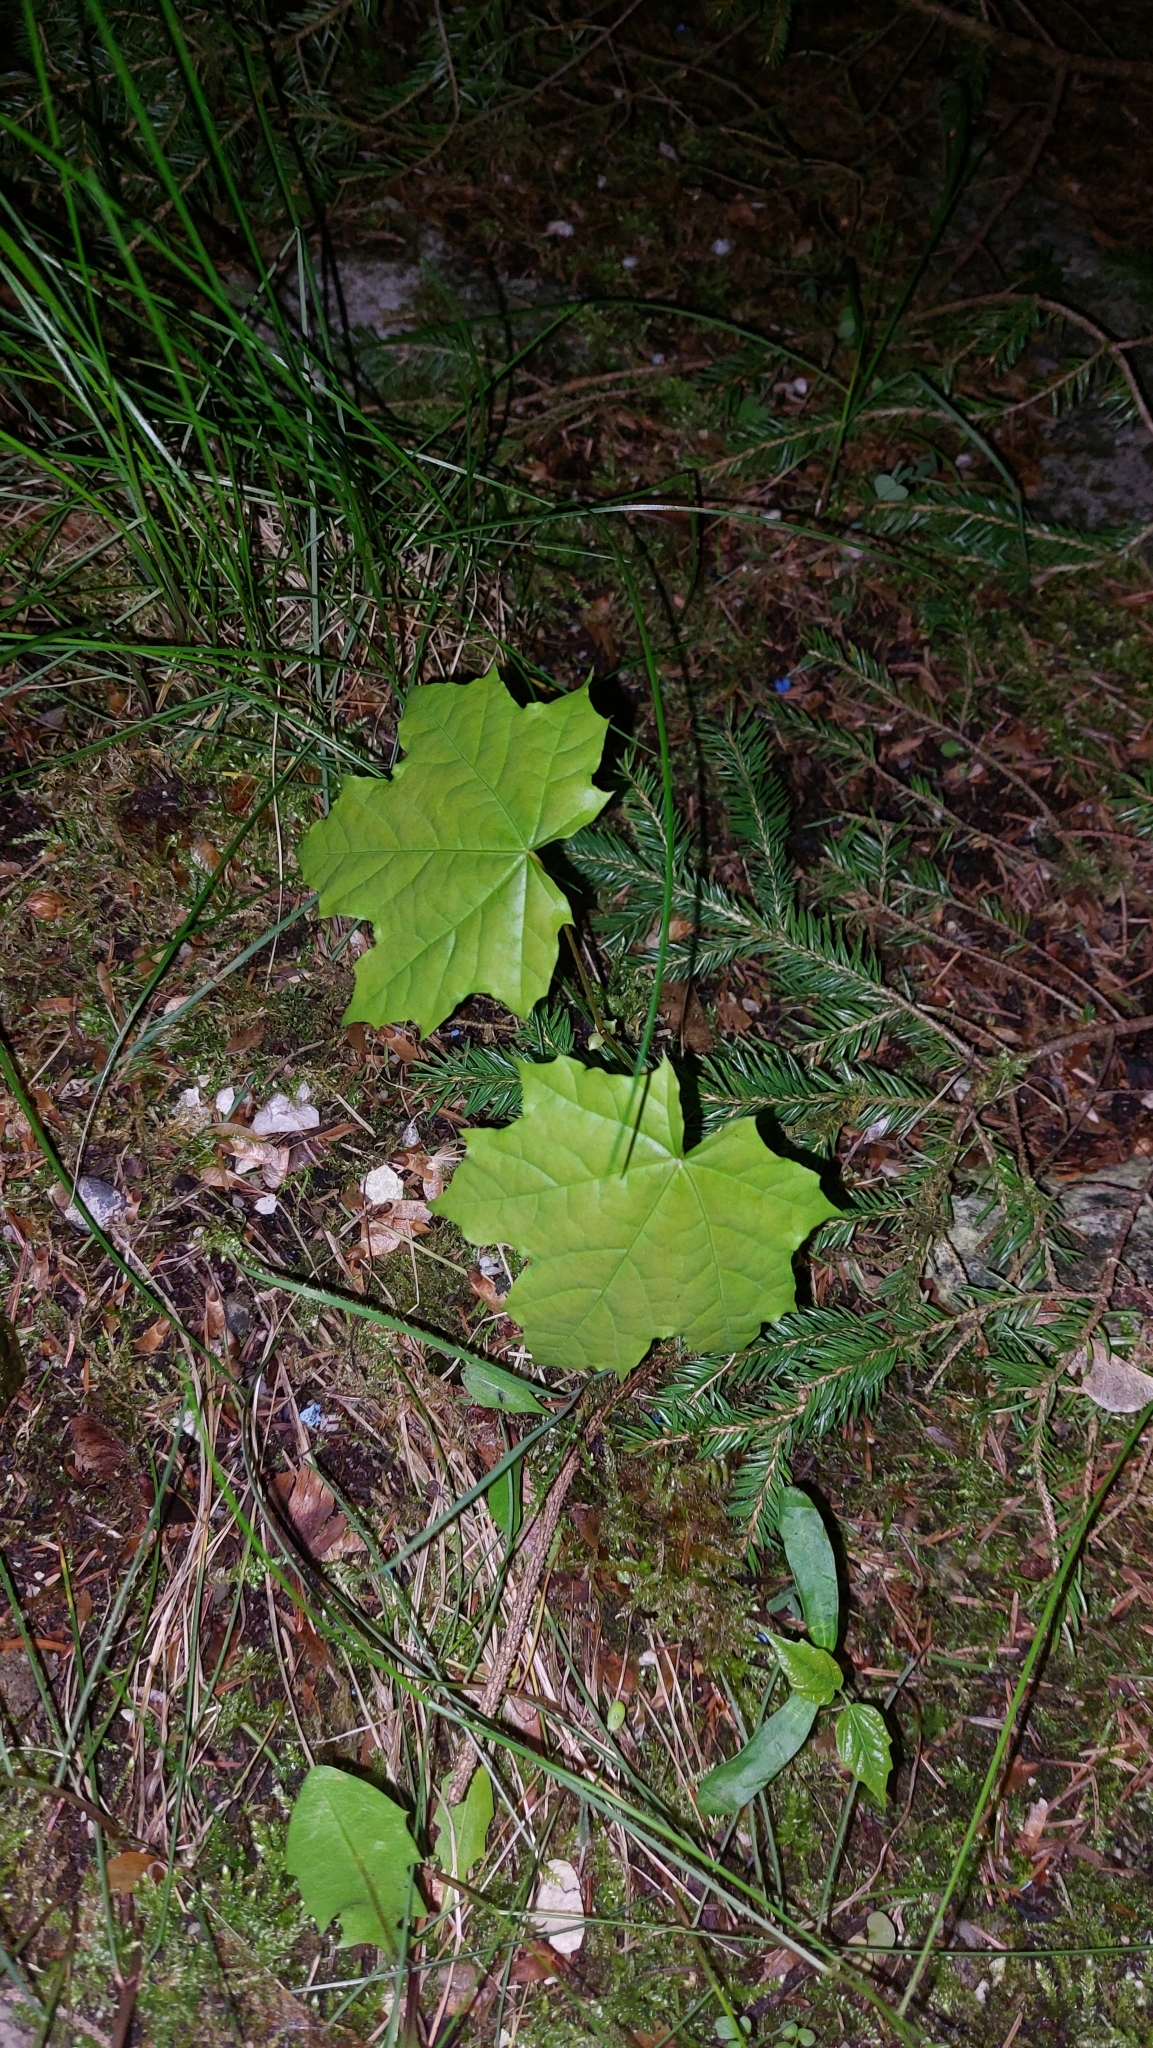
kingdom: Plantae
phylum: Tracheophyta
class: Magnoliopsida
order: Sapindales
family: Sapindaceae
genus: Acer
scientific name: Acer platanoides
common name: Norway maple
